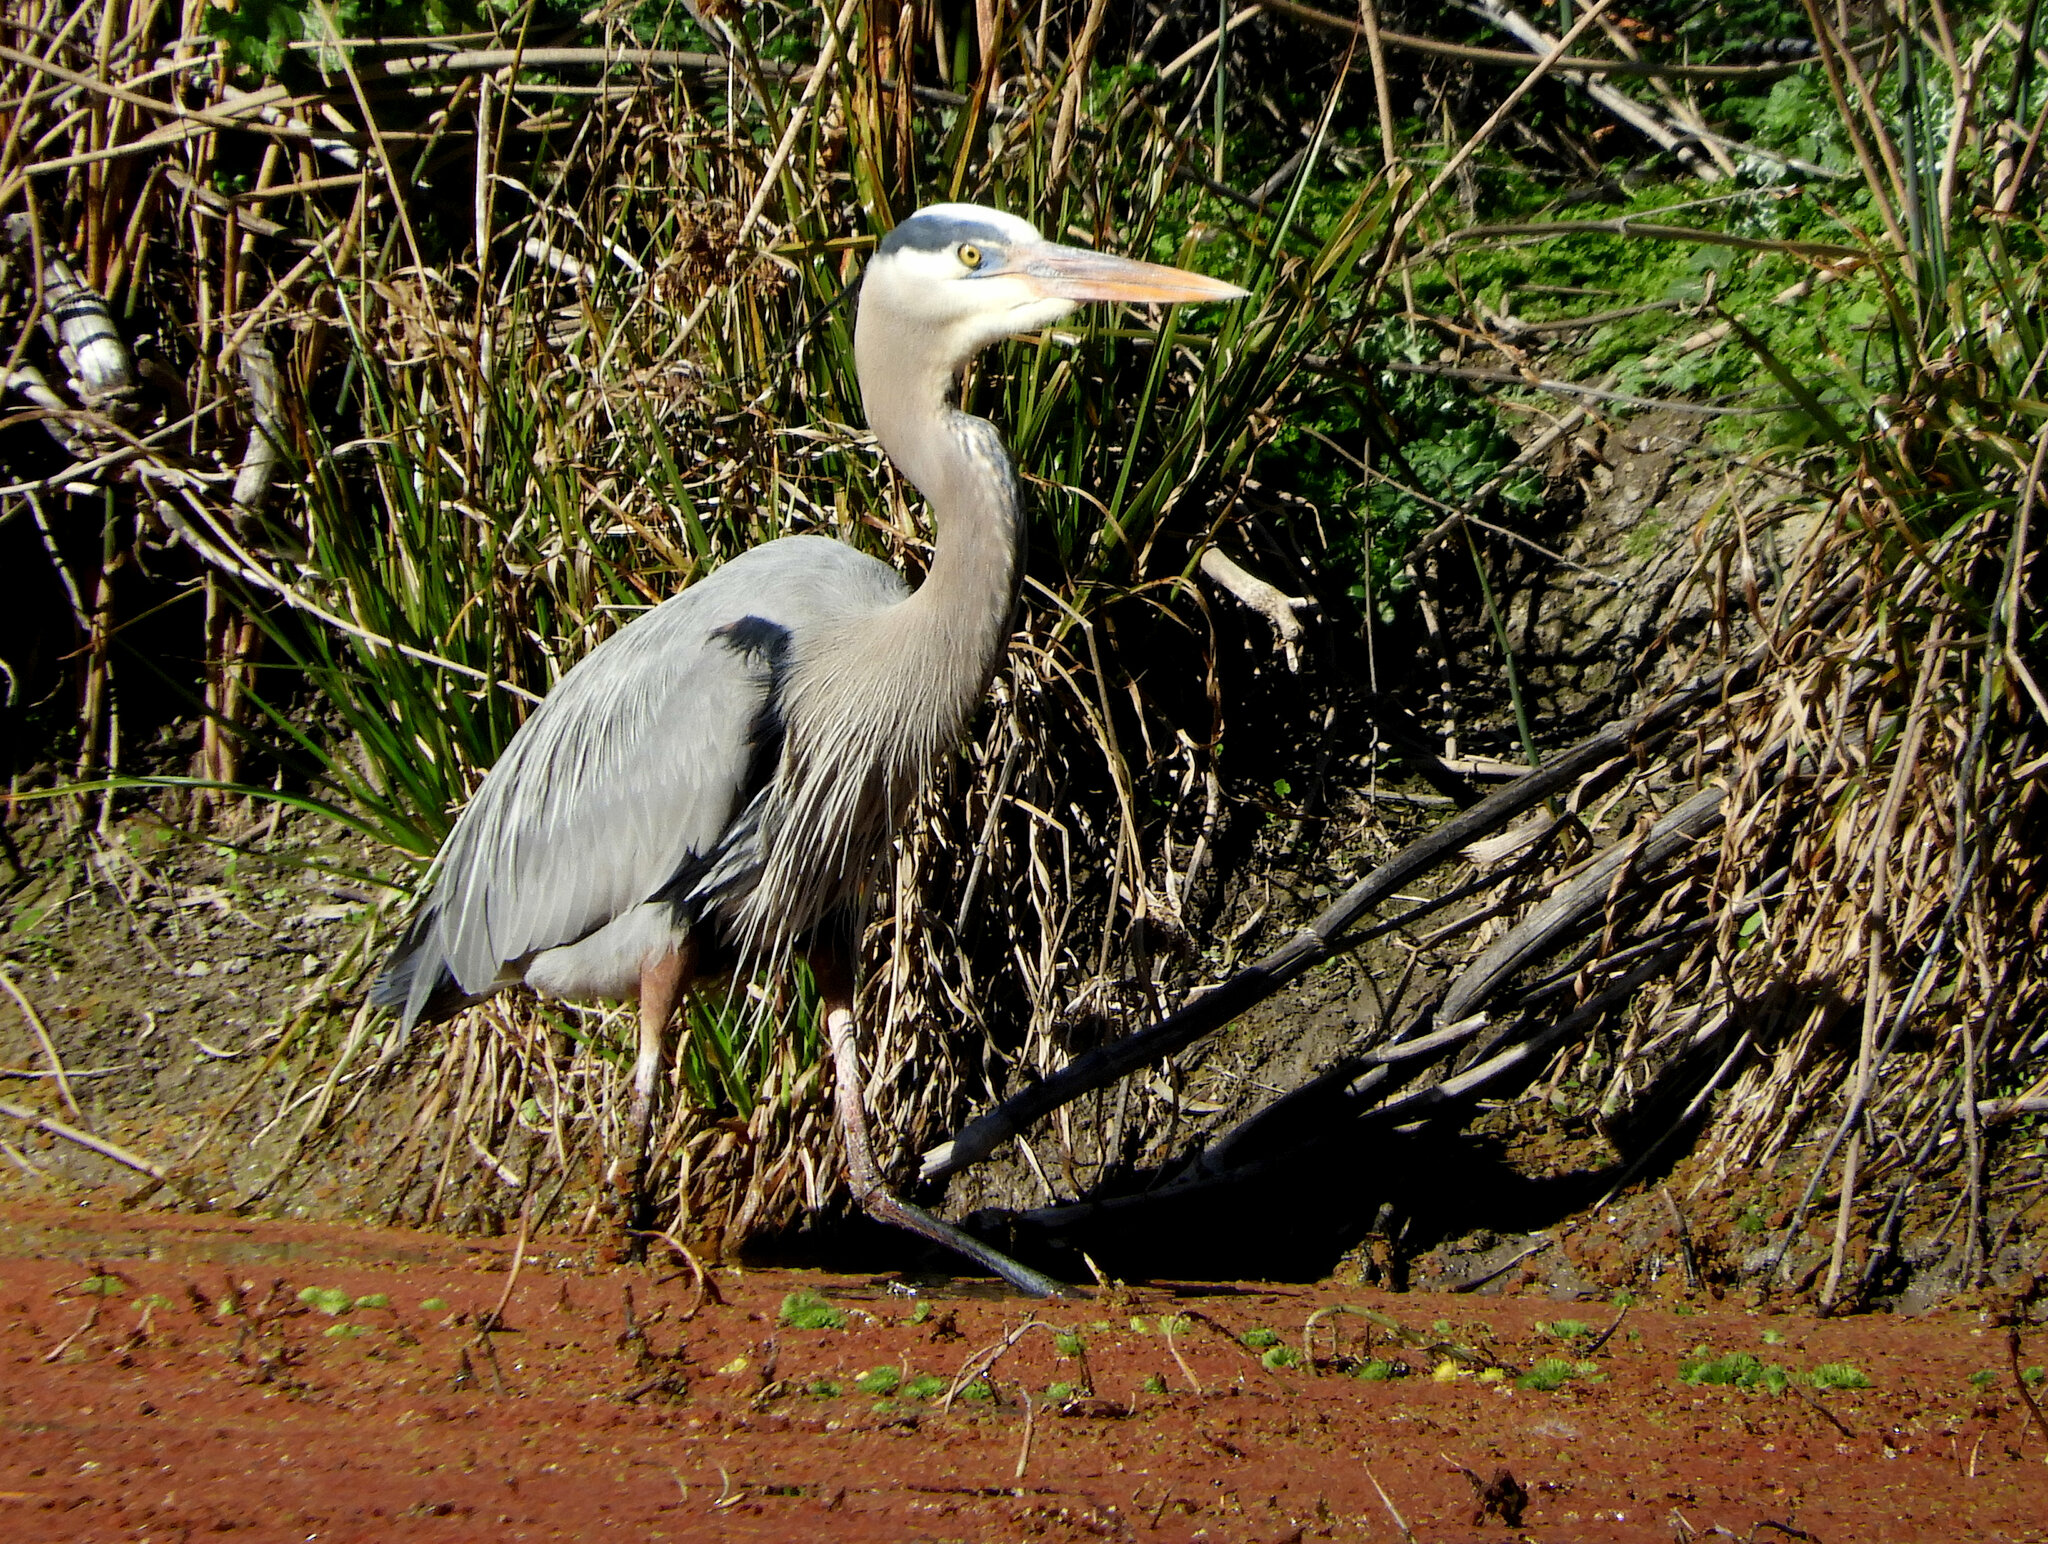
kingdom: Animalia
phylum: Chordata
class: Aves
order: Pelecaniformes
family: Ardeidae
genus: Ardea
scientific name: Ardea herodias
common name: Great blue heron
